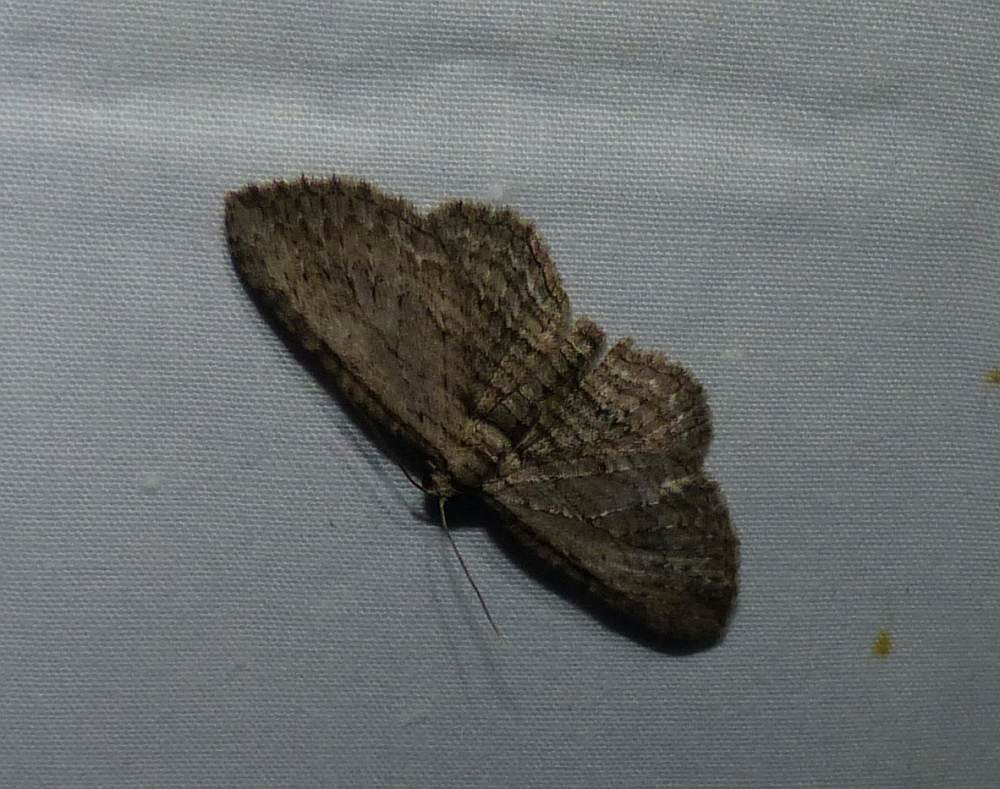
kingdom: Animalia
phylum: Arthropoda
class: Insecta
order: Lepidoptera
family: Geometridae
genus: Horisme
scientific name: Horisme intestinata
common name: Brown bark carpet
